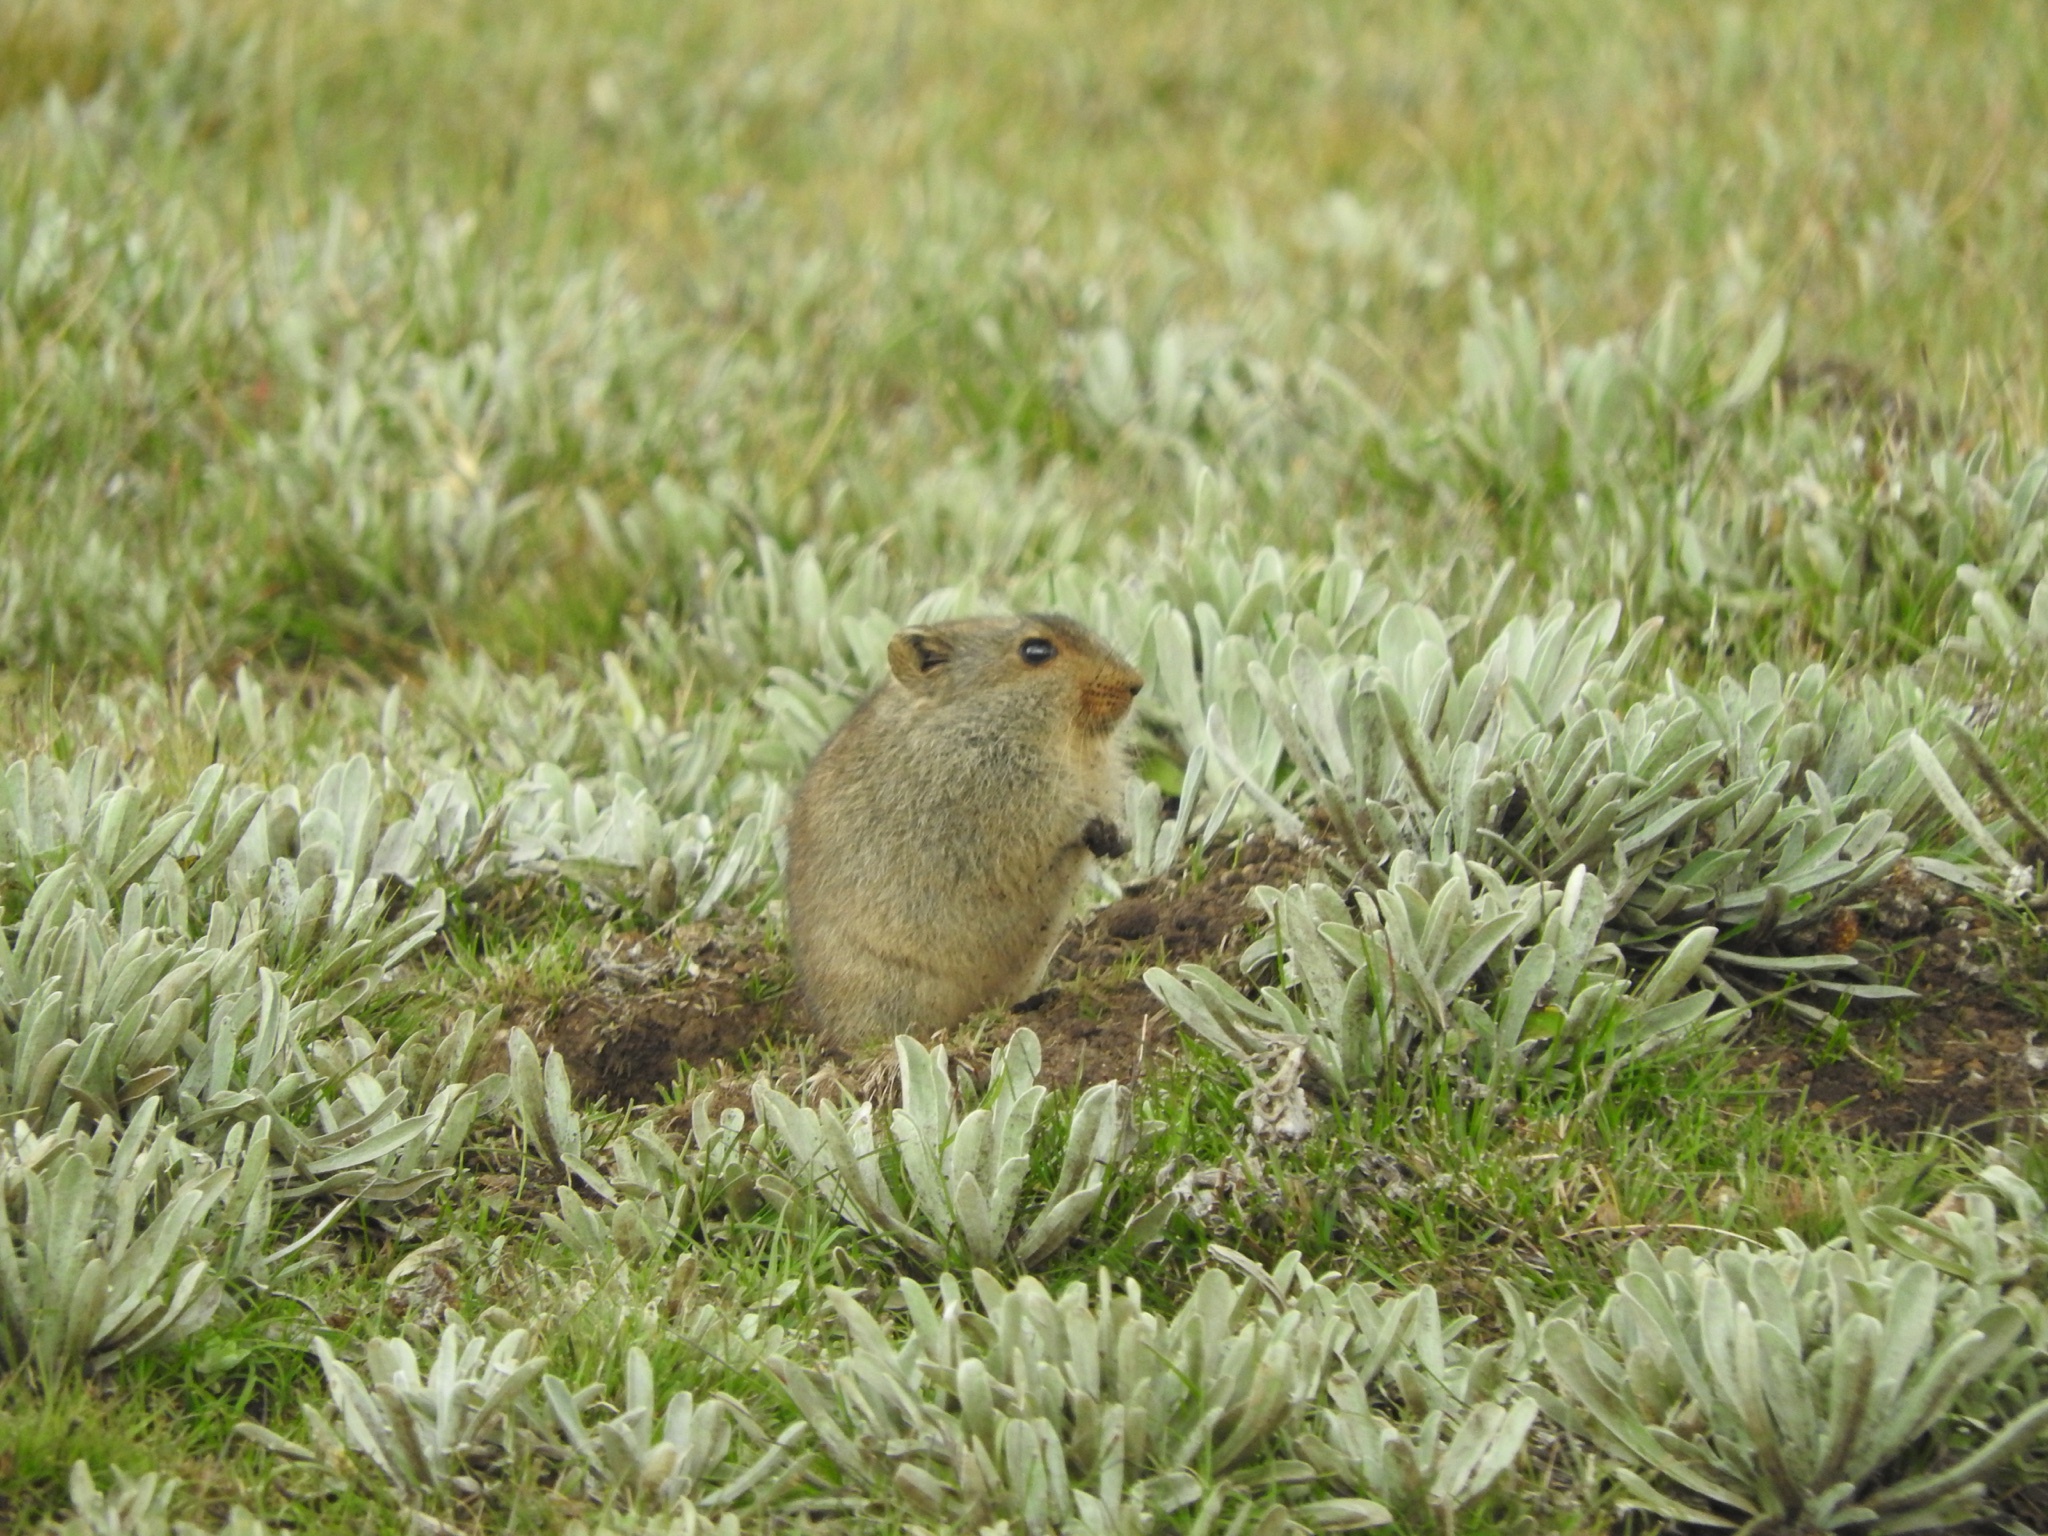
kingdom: Animalia
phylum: Chordata
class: Mammalia
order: Rodentia
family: Muridae
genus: Myotomys
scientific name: Myotomys sloggetti
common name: Rock karroo rat
